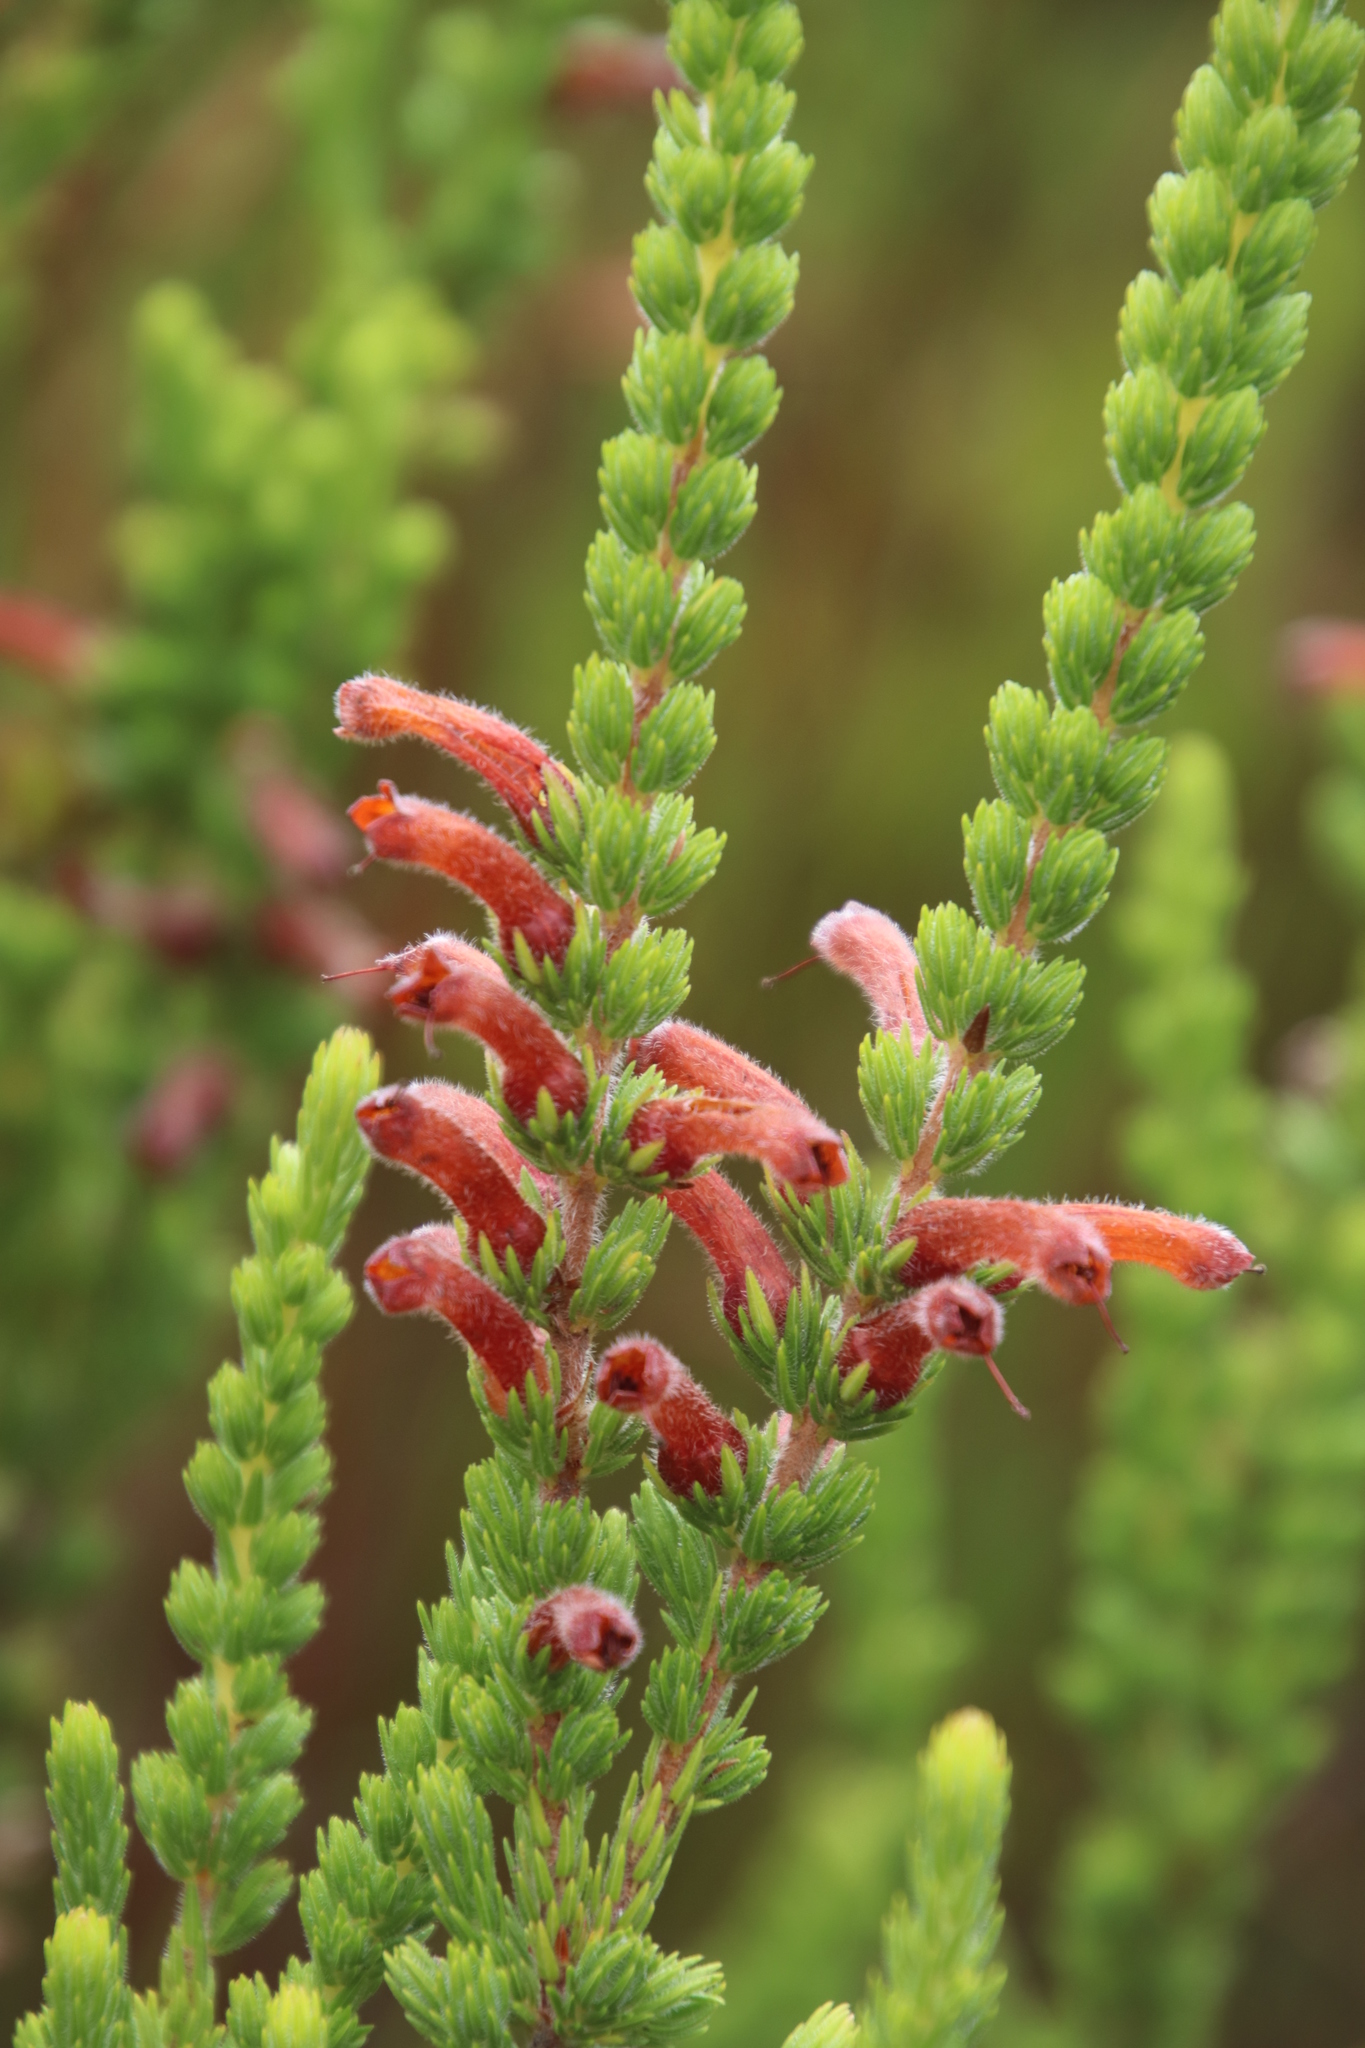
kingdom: Plantae
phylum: Tracheophyta
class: Magnoliopsida
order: Ericales
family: Ericaceae
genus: Erica
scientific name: Erica macowanii
